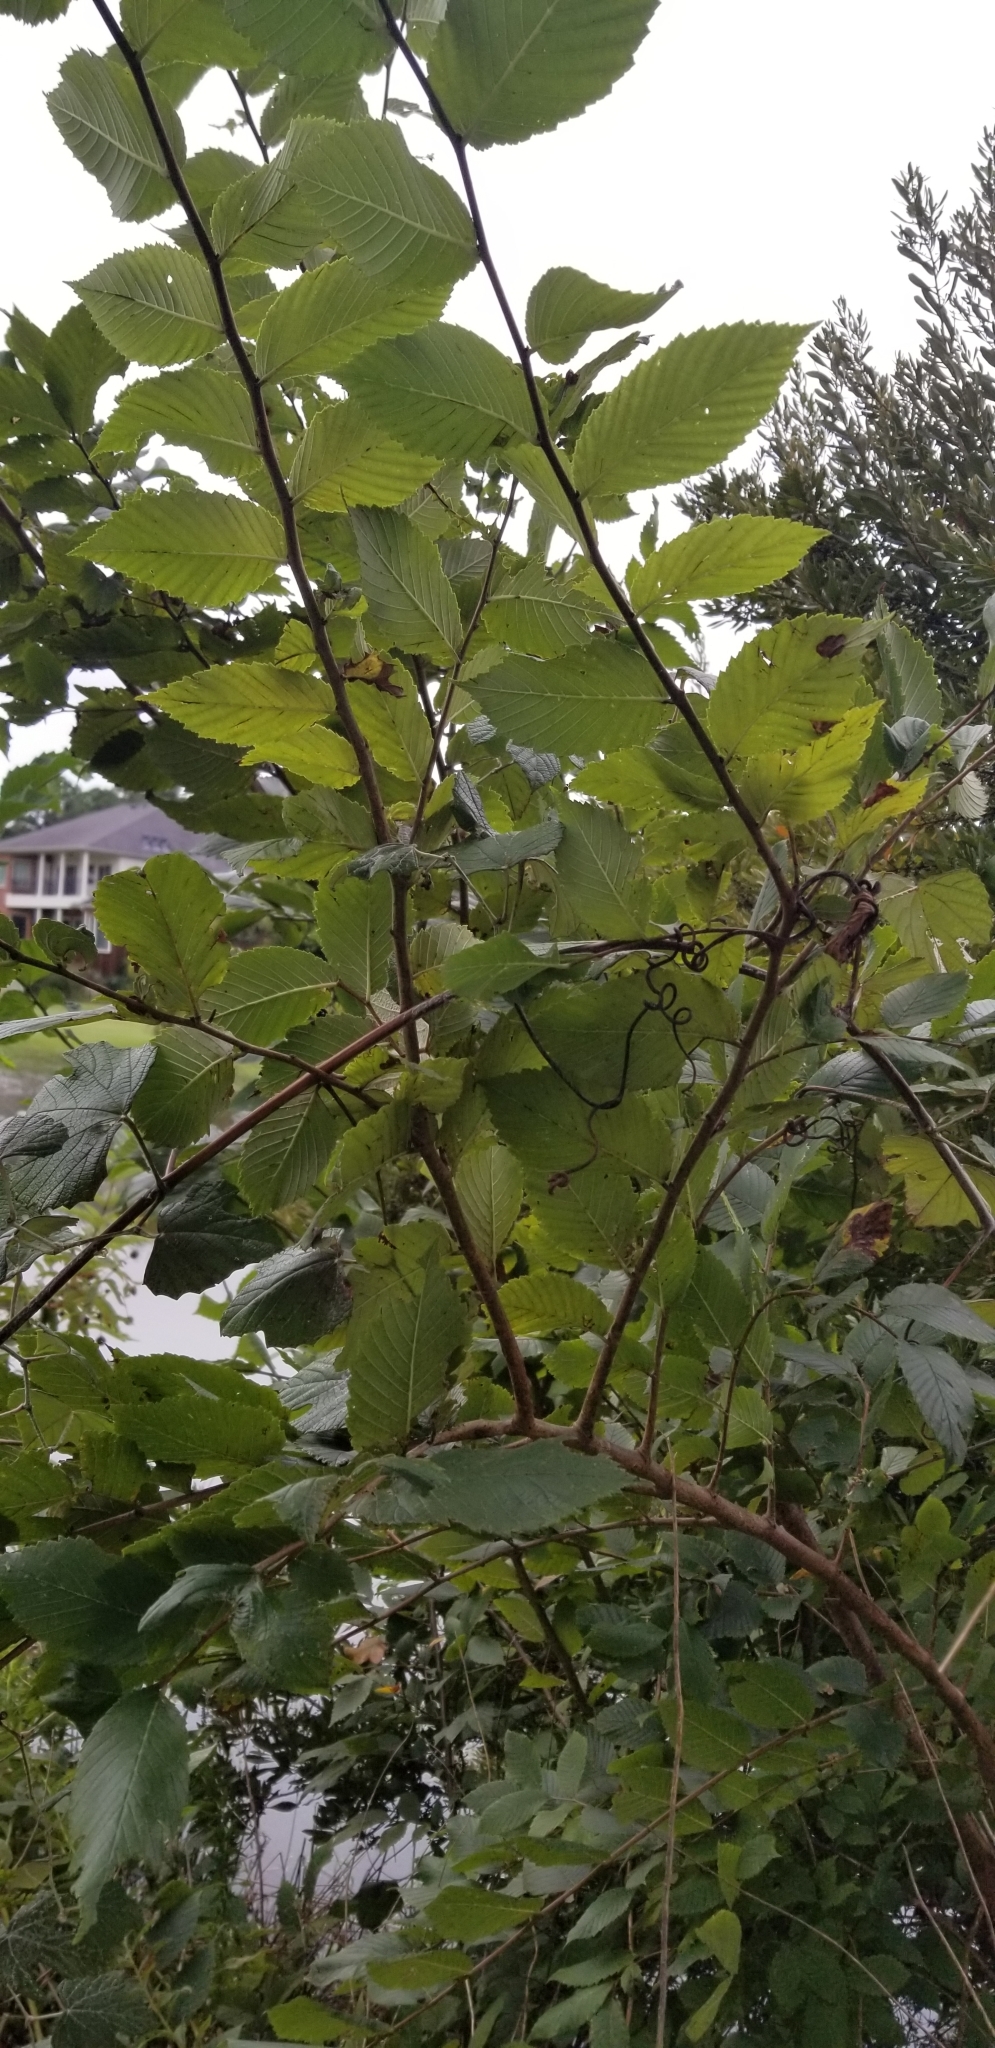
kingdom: Plantae
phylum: Tracheophyta
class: Magnoliopsida
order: Rosales
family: Ulmaceae
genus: Ulmus
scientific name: Ulmus americana
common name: American elm
